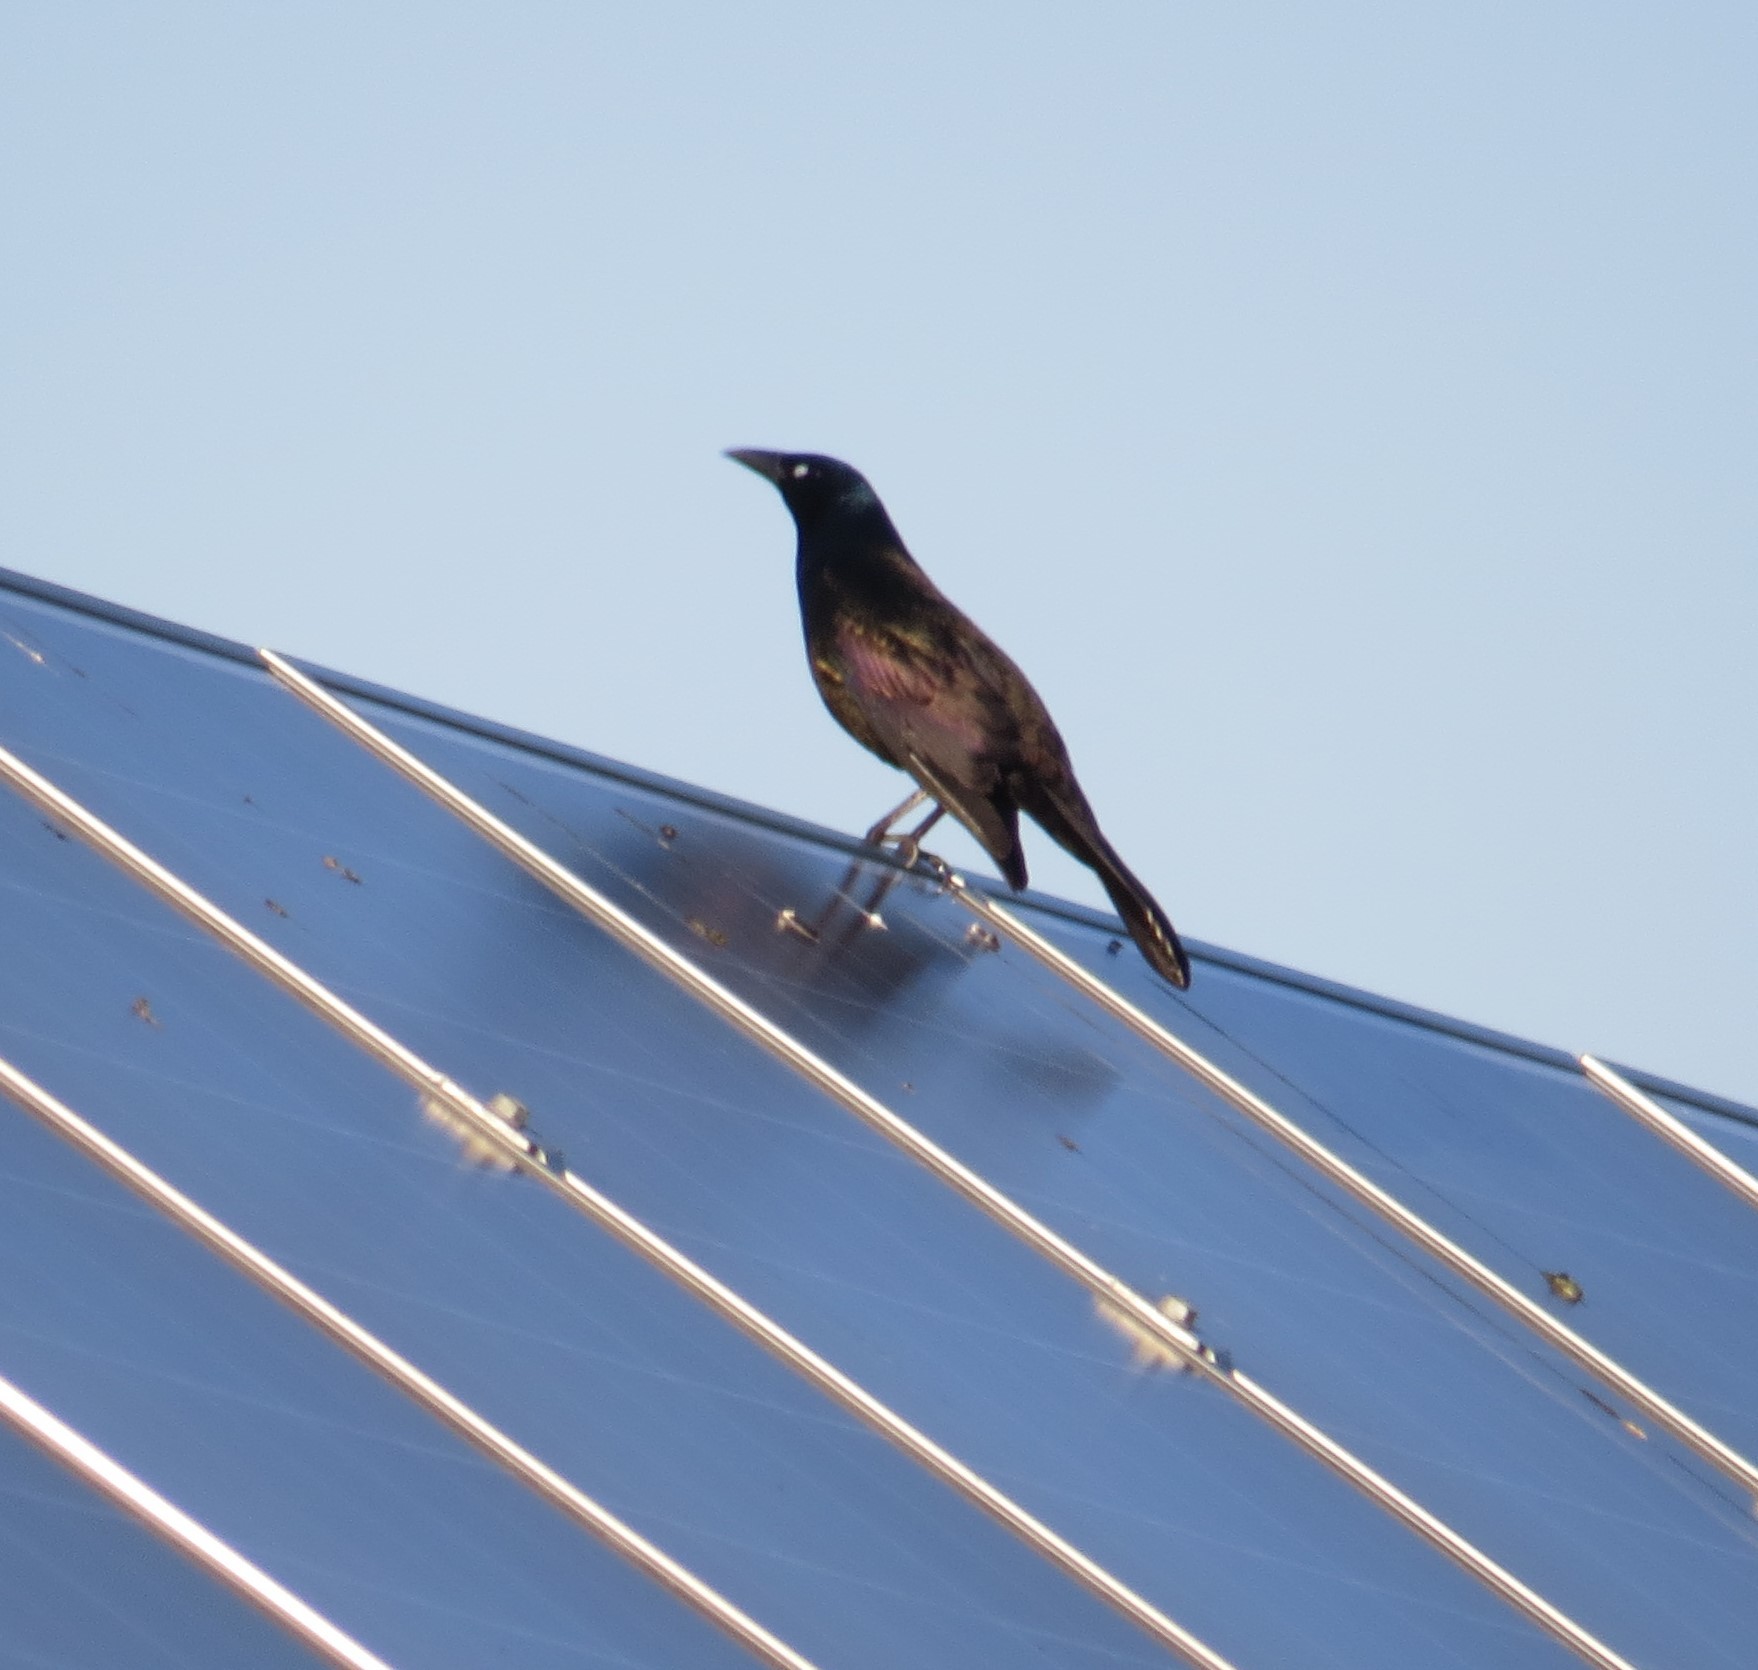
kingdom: Animalia
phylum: Chordata
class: Aves
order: Passeriformes
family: Icteridae
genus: Quiscalus
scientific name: Quiscalus quiscula
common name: Common grackle
